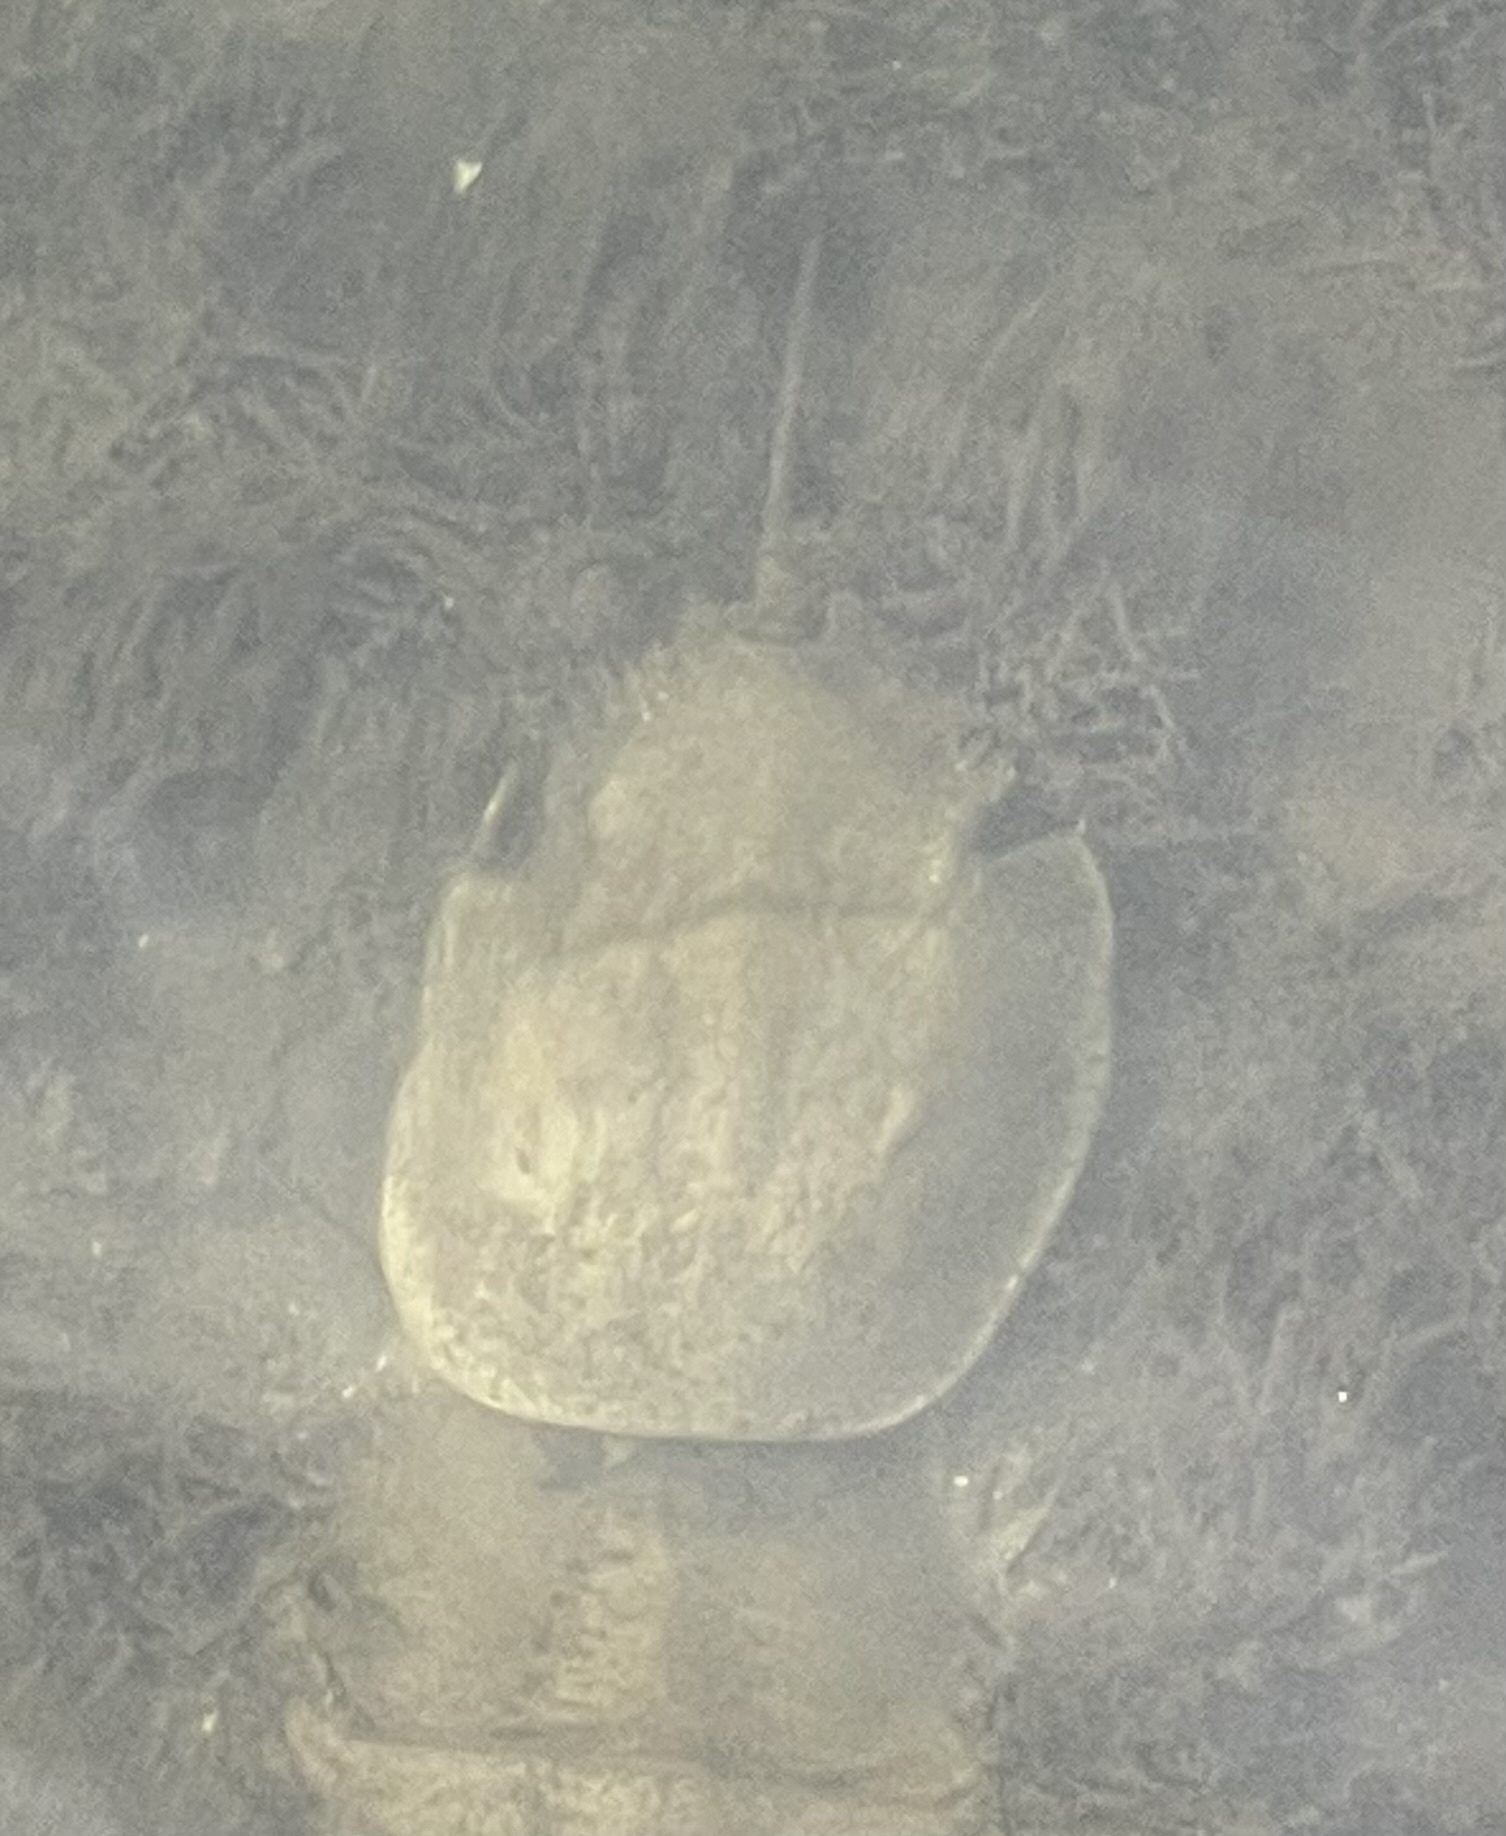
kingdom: Animalia
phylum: Arthropoda
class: Merostomata
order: Xiphosurida
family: Limulidae
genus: Limulus
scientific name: Limulus polyphemus
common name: Horseshoe crab
